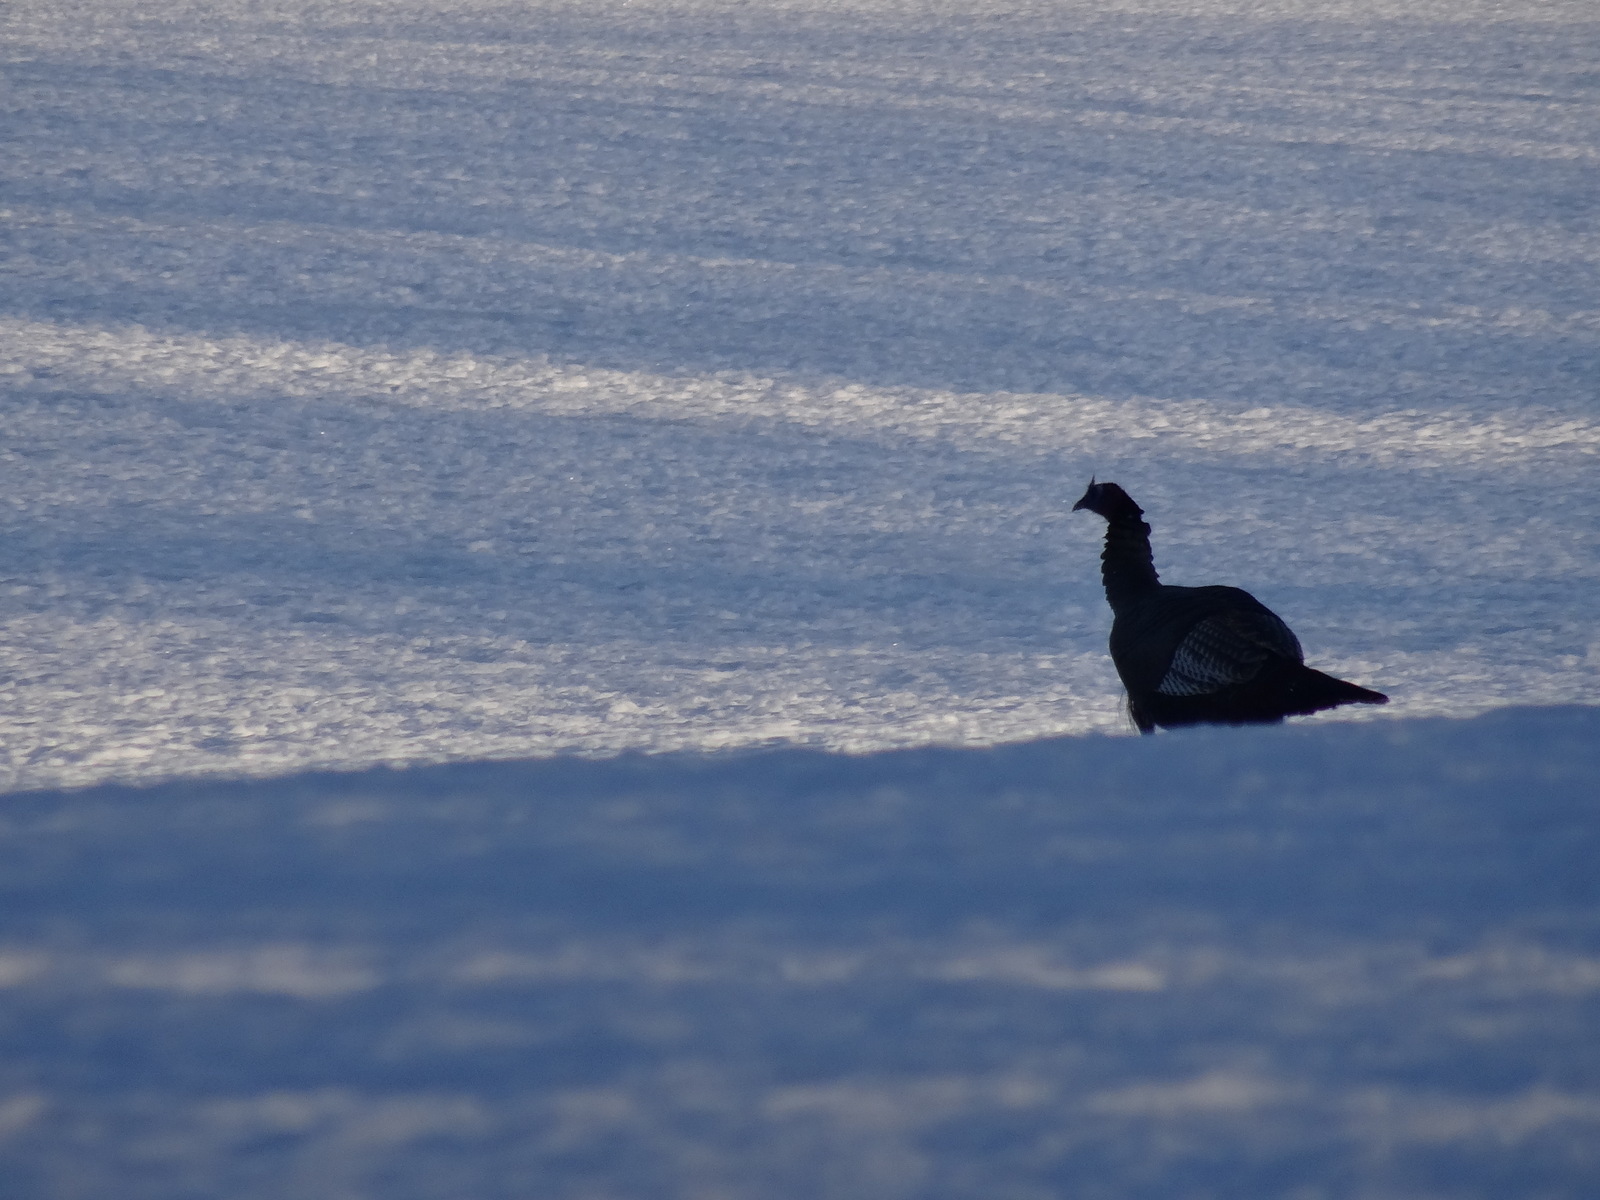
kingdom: Animalia
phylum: Chordata
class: Aves
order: Galliformes
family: Phasianidae
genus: Meleagris
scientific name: Meleagris gallopavo
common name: Wild turkey
